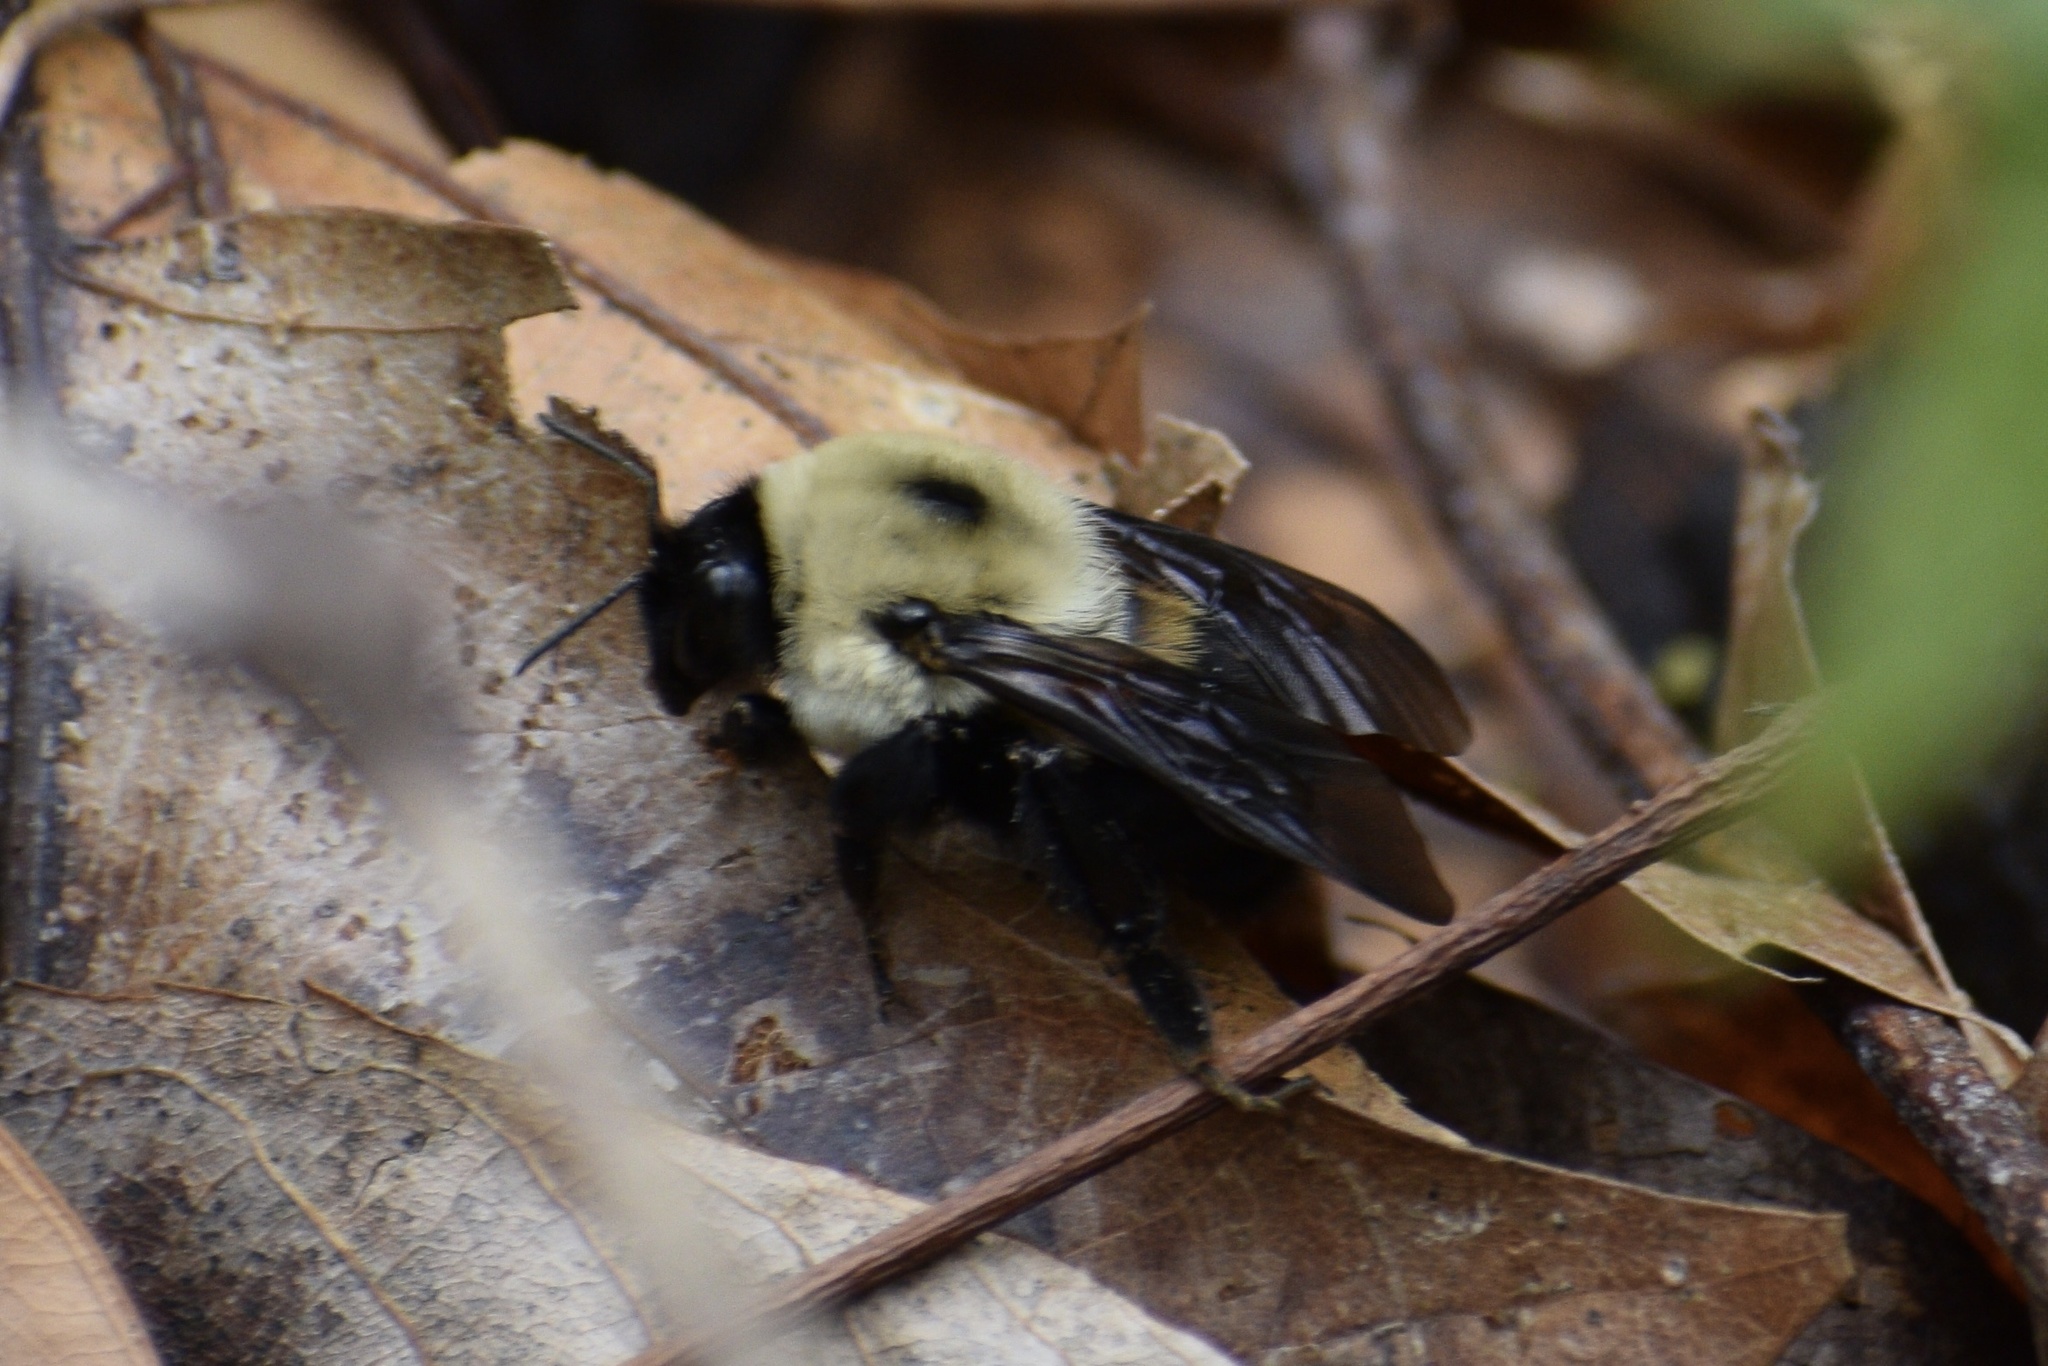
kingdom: Animalia
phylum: Arthropoda
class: Insecta
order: Hymenoptera
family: Apidae
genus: Bombus
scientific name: Bombus griseocollis
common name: Brown-belted bumble bee
